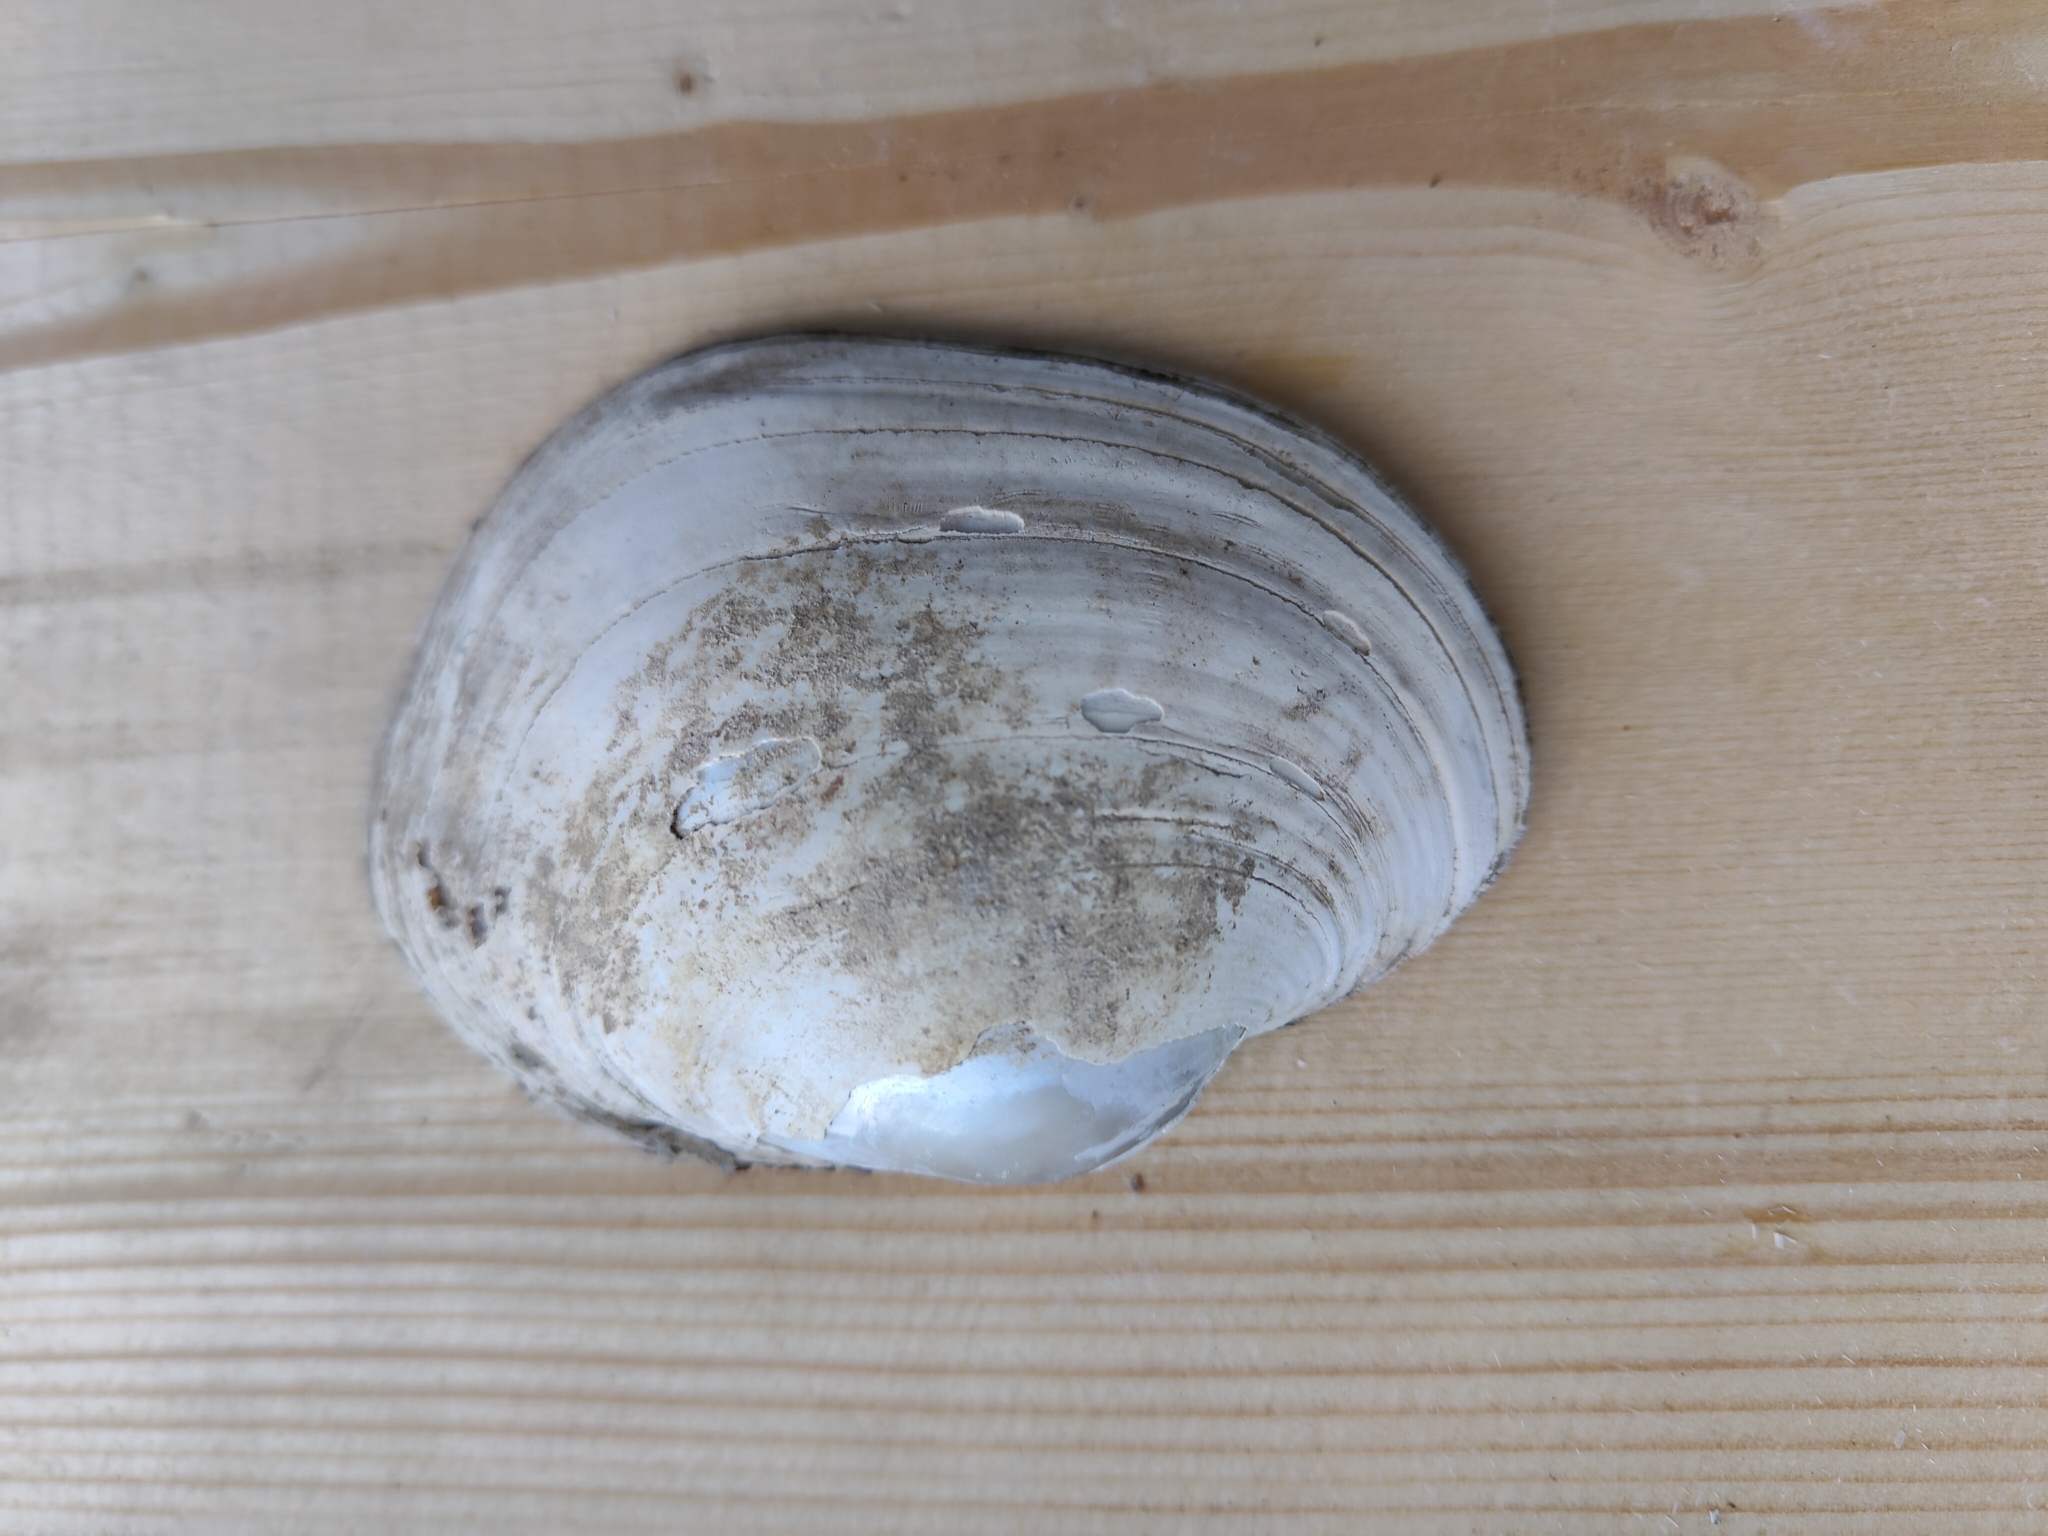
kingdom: Animalia
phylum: Mollusca
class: Bivalvia
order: Unionida
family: Unionidae
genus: Lampsilis
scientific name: Lampsilis cardium
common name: Plain pocketbook
